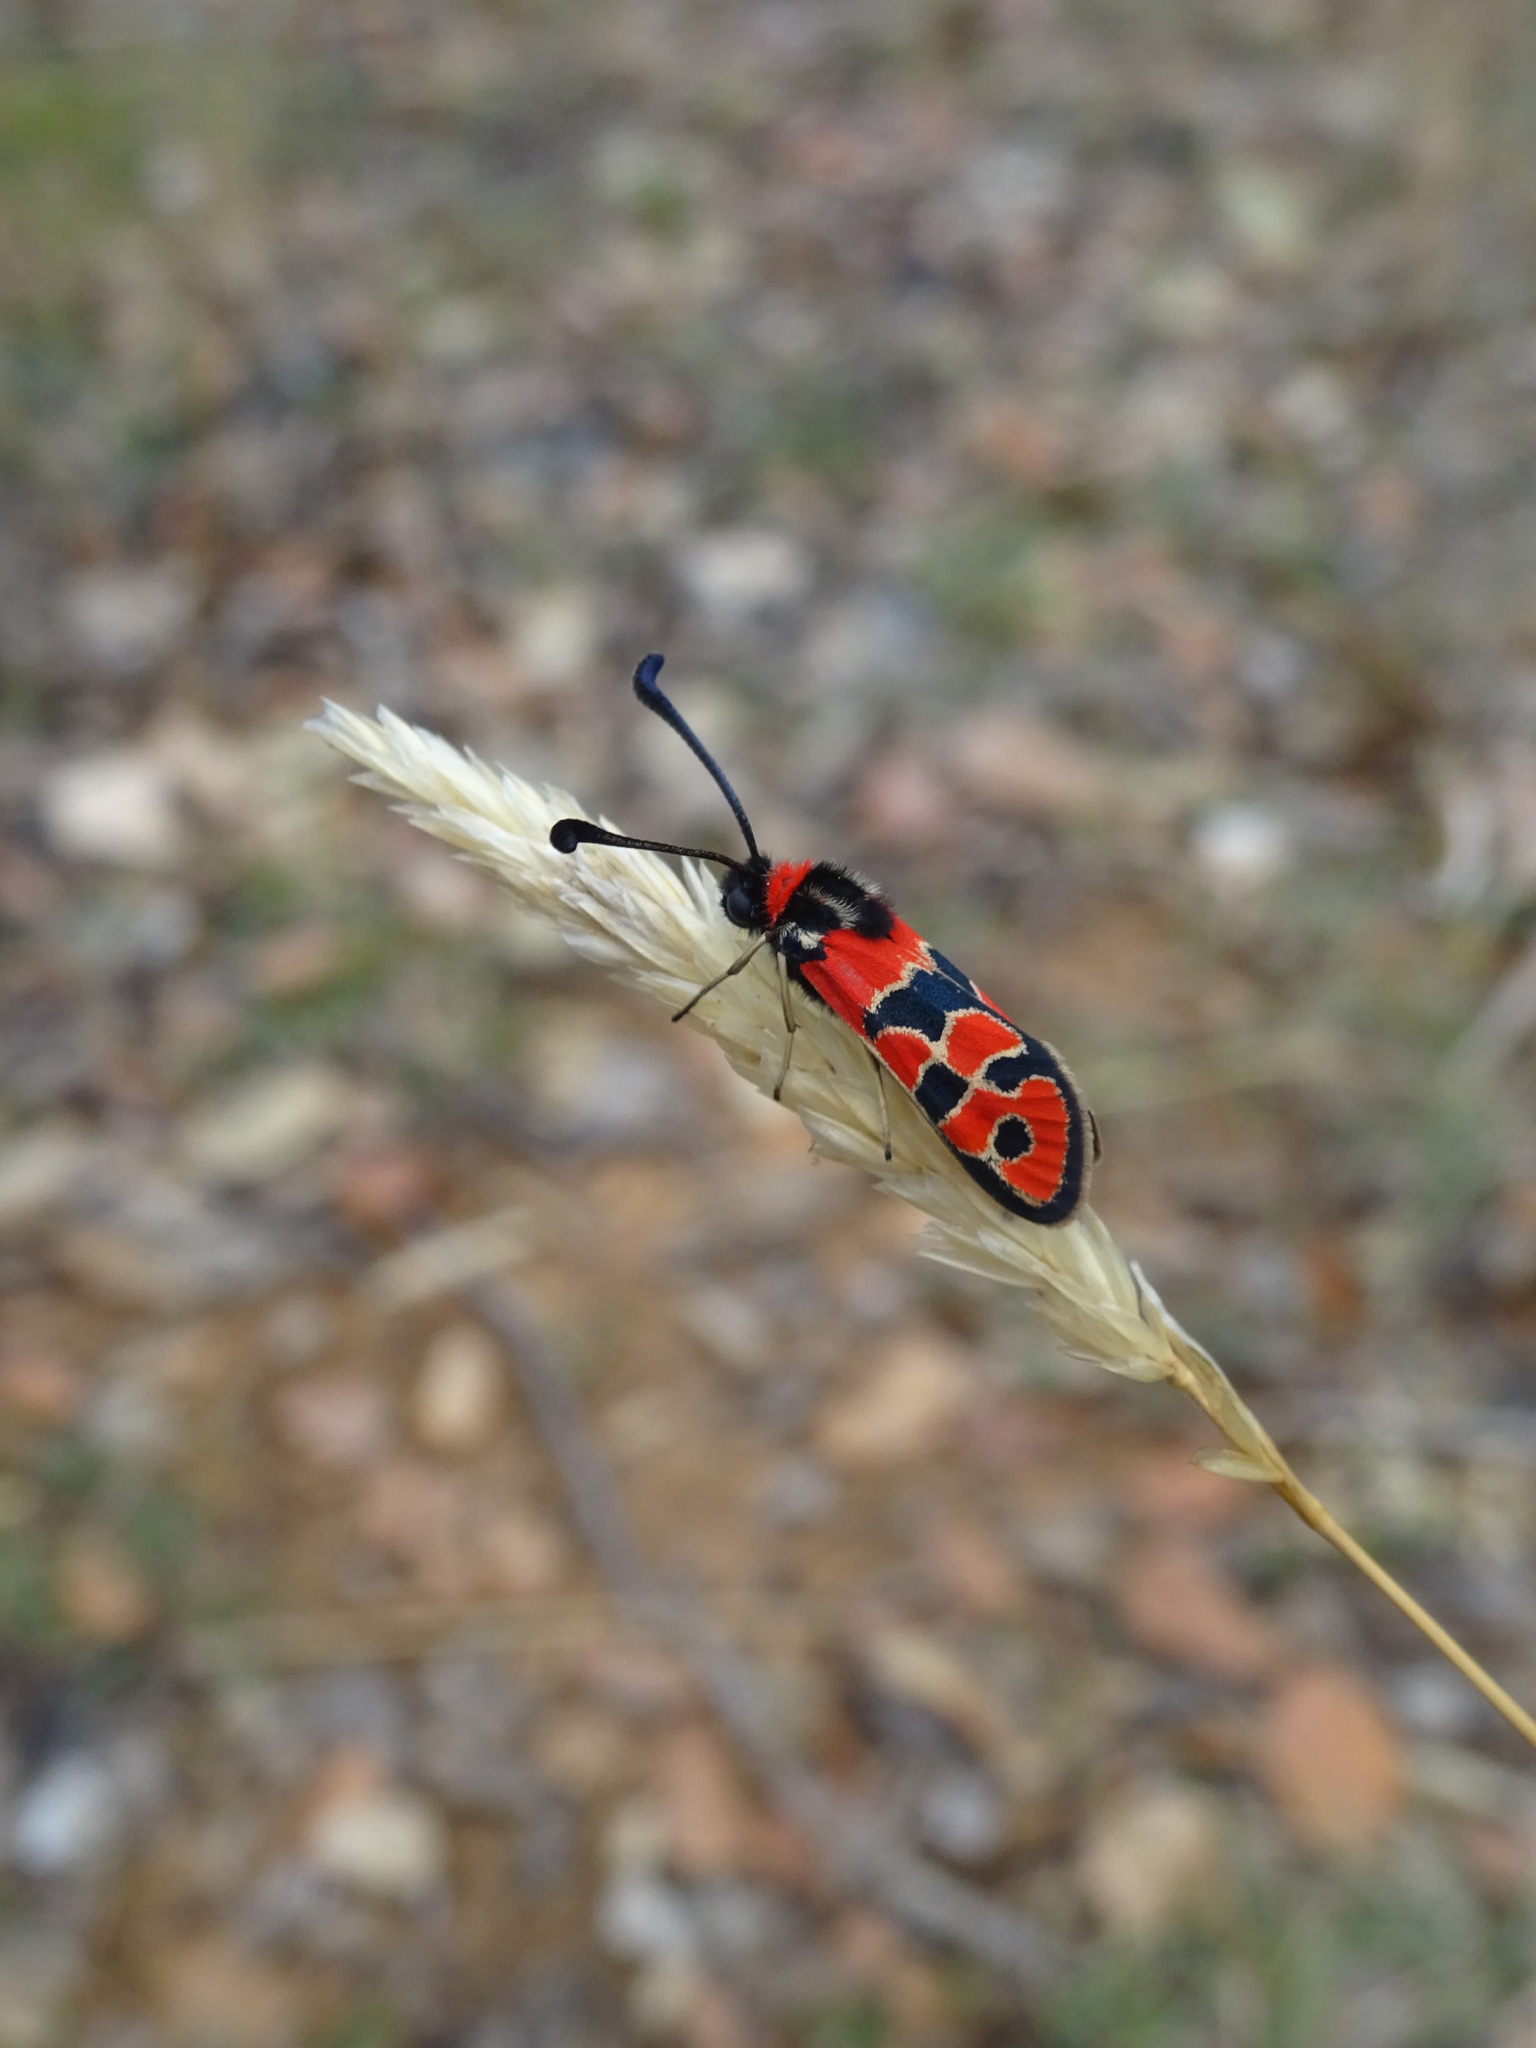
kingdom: Animalia
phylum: Arthropoda
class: Insecta
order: Lepidoptera
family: Zygaenidae
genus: Zygaena
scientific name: Zygaena fausta
